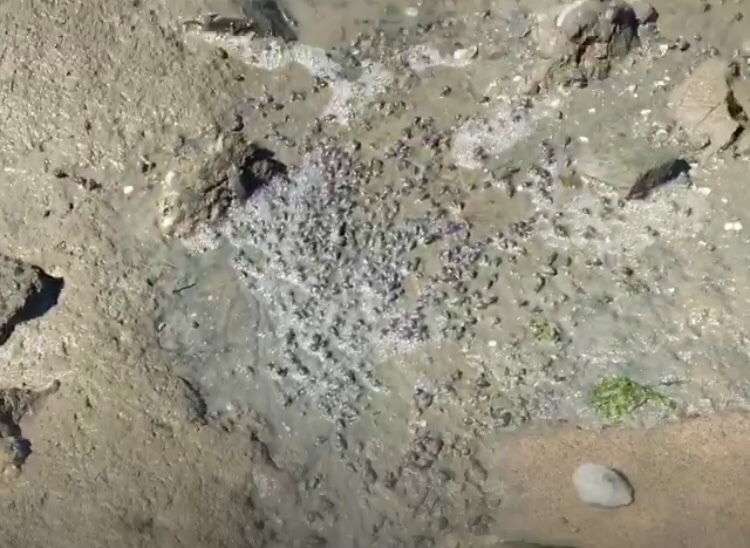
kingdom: Animalia
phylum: Mollusca
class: Gastropoda
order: Neogastropoda
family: Nassariidae
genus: Ilyanassa
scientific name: Ilyanassa obsoleta
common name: Eastern mudsnail
